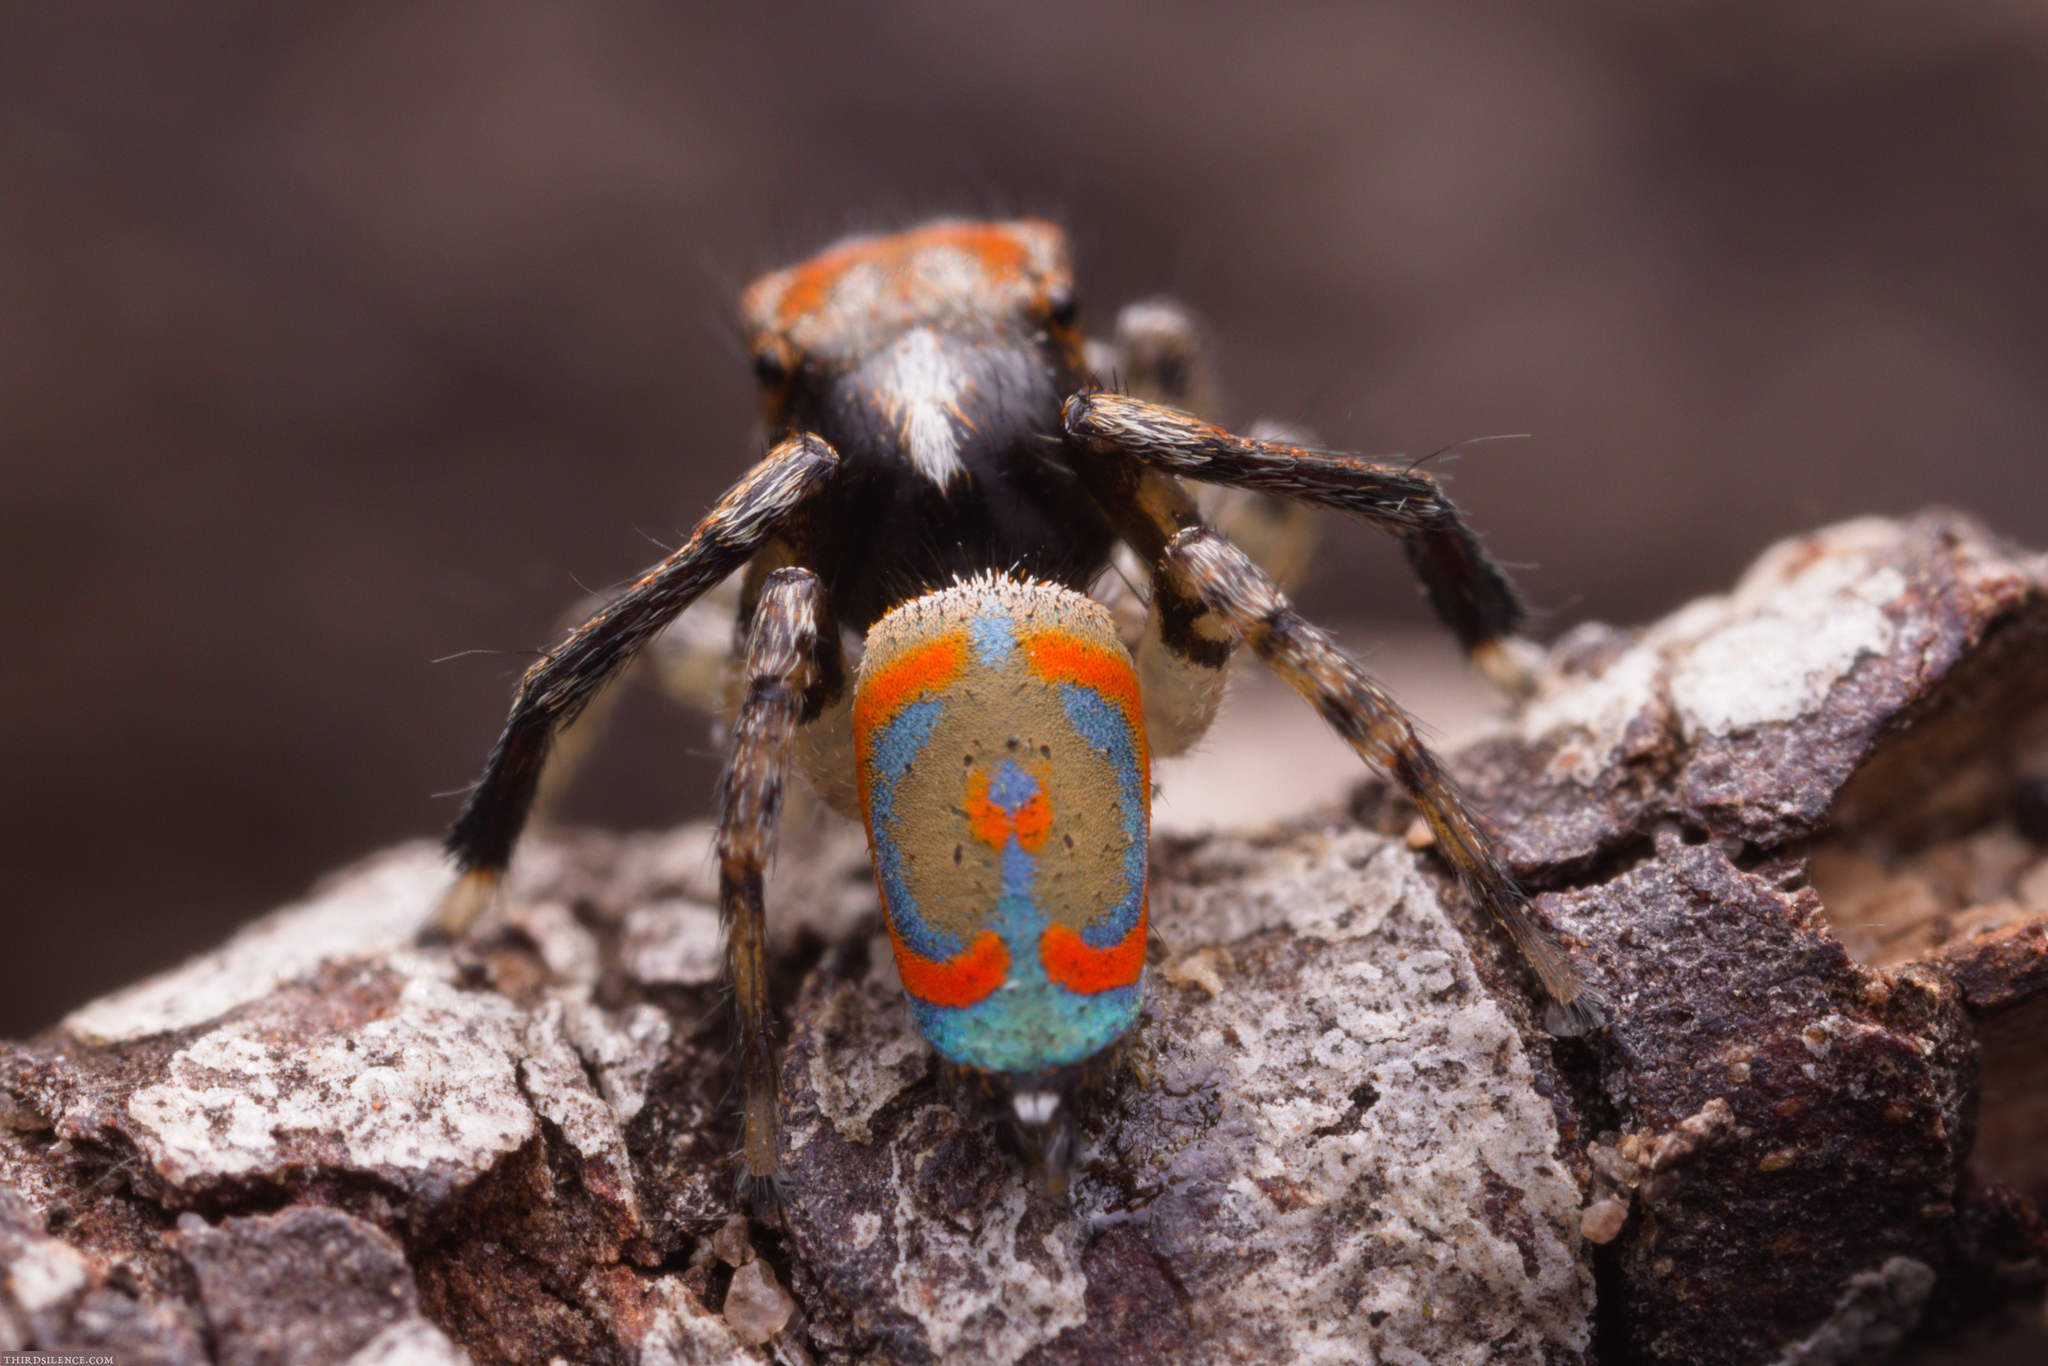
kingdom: Animalia
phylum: Arthropoda
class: Arachnida
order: Araneae
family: Salticidae
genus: Maratus
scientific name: Maratus literatus
